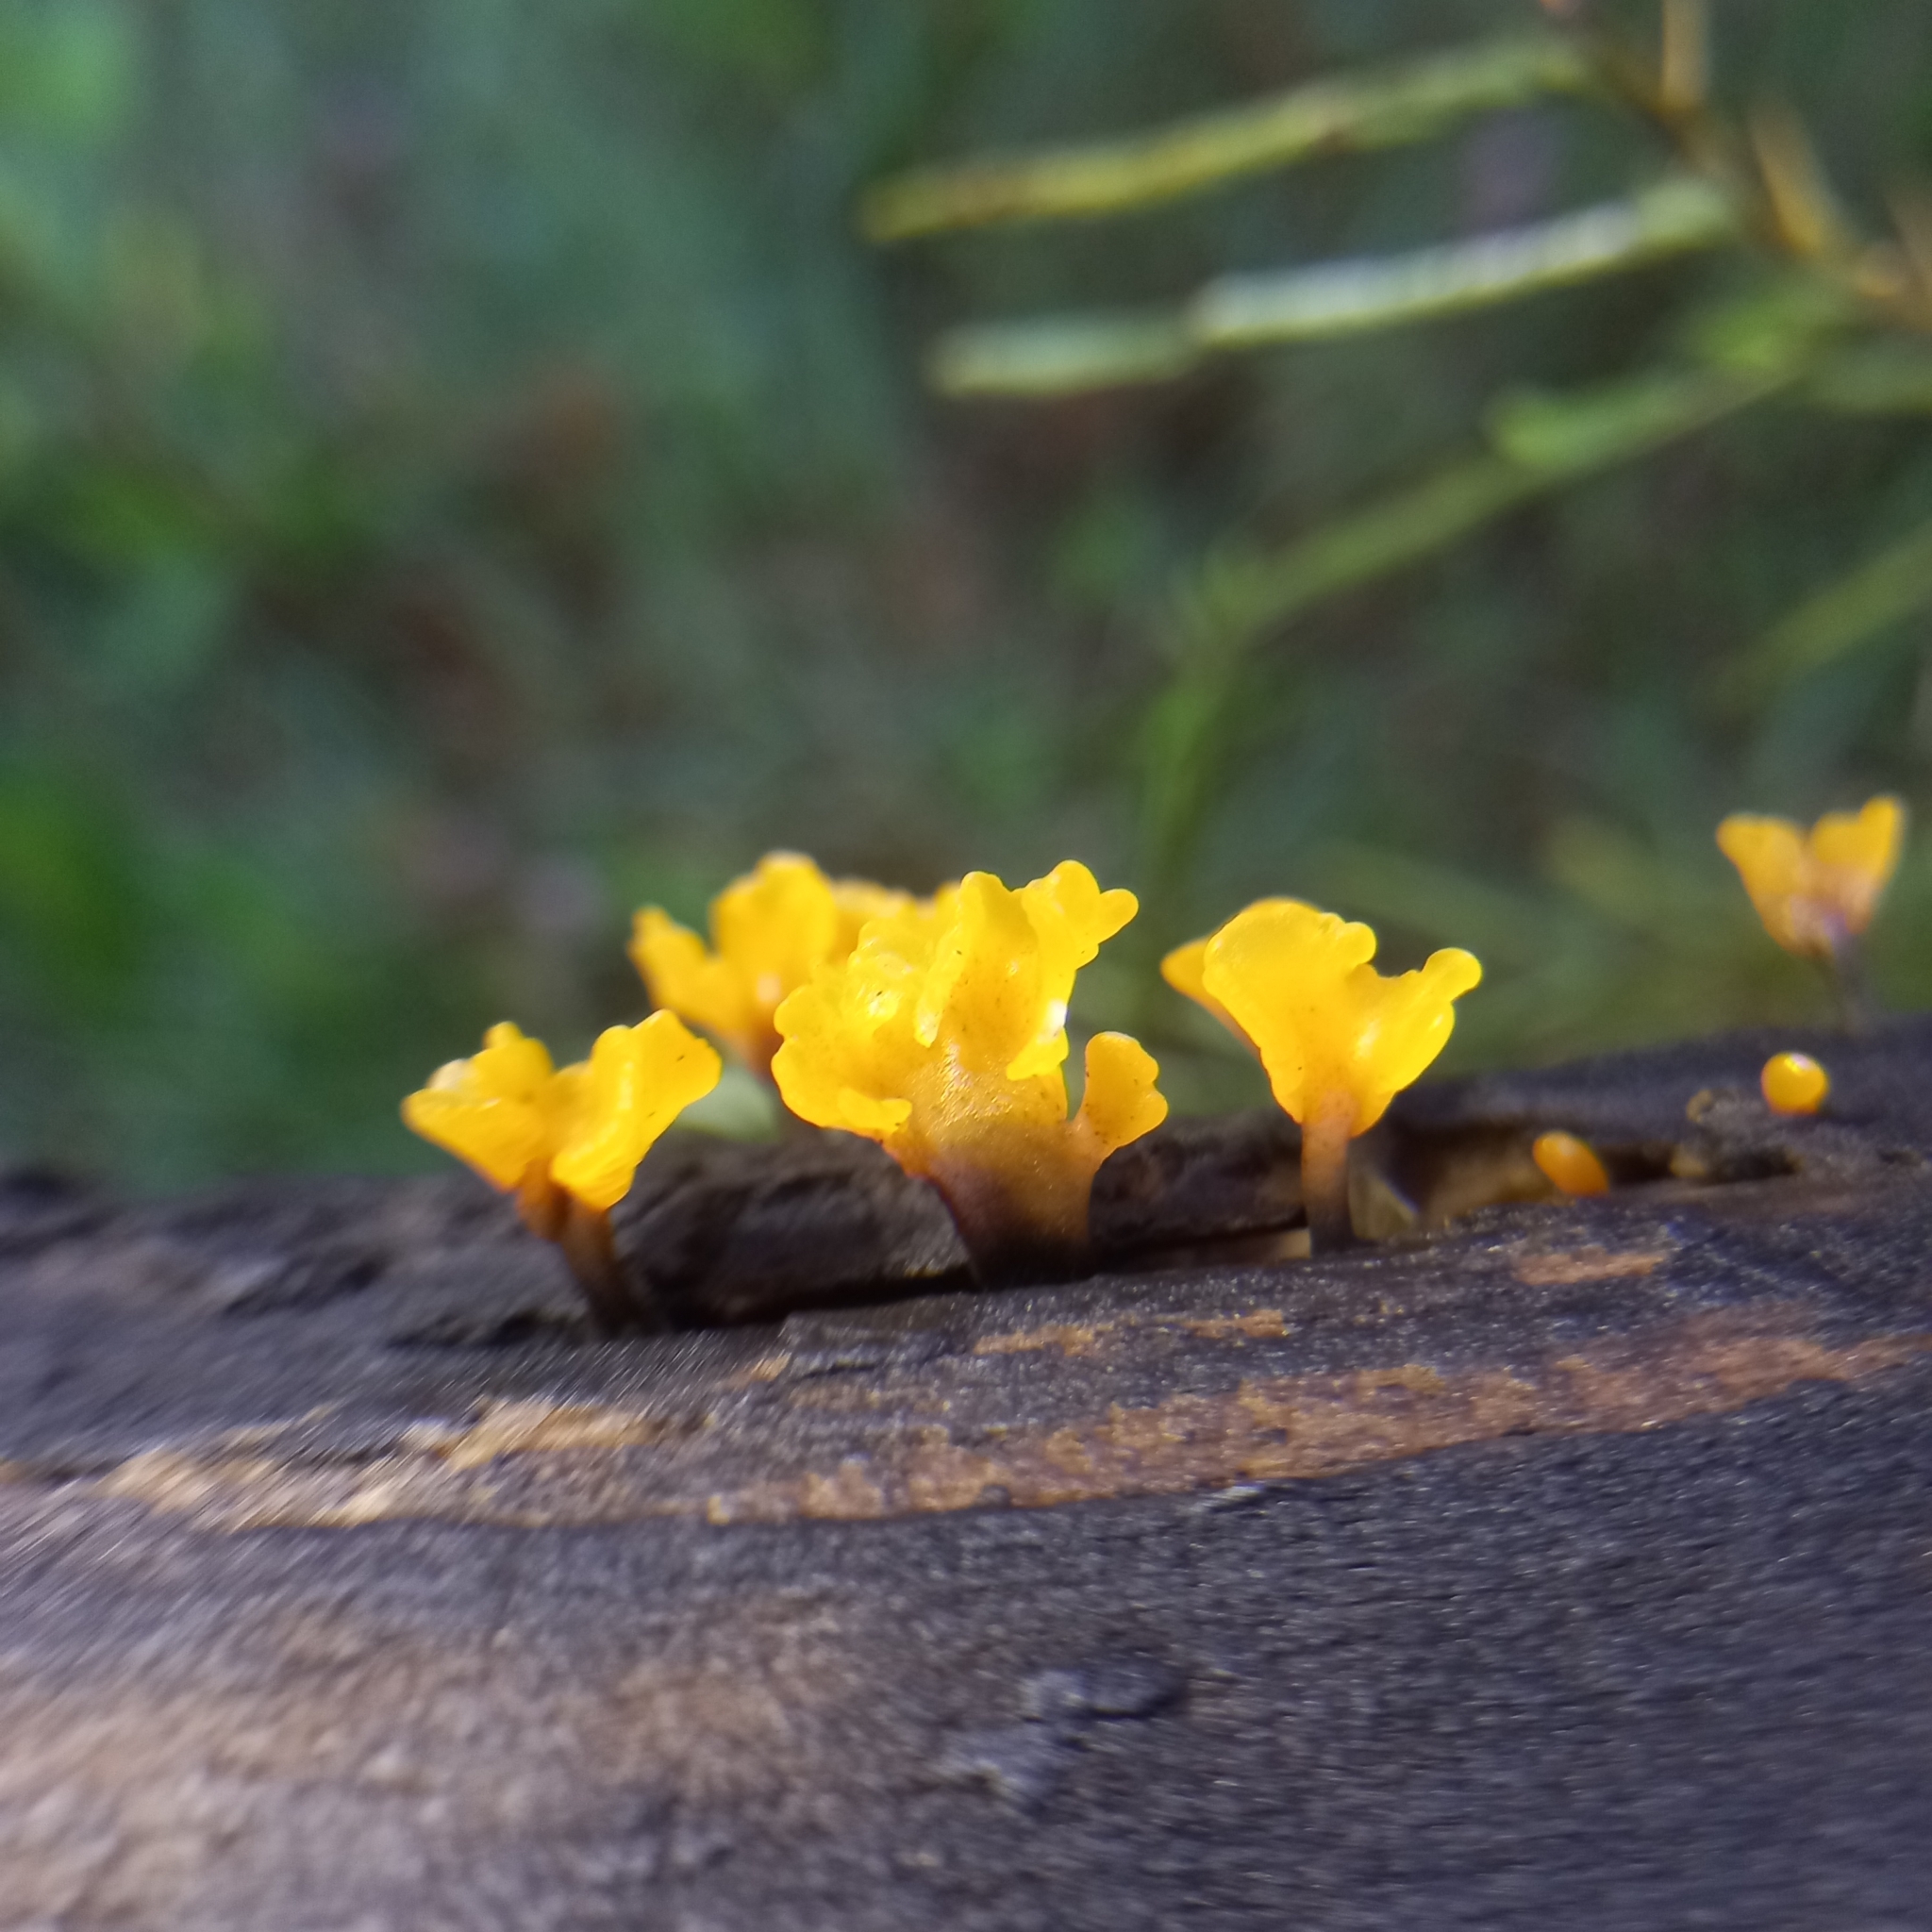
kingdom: Fungi
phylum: Basidiomycota
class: Dacrymycetes
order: Dacrymycetales
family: Dacrymycetaceae
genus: Dacrymyces
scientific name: Dacrymyces spathularius
